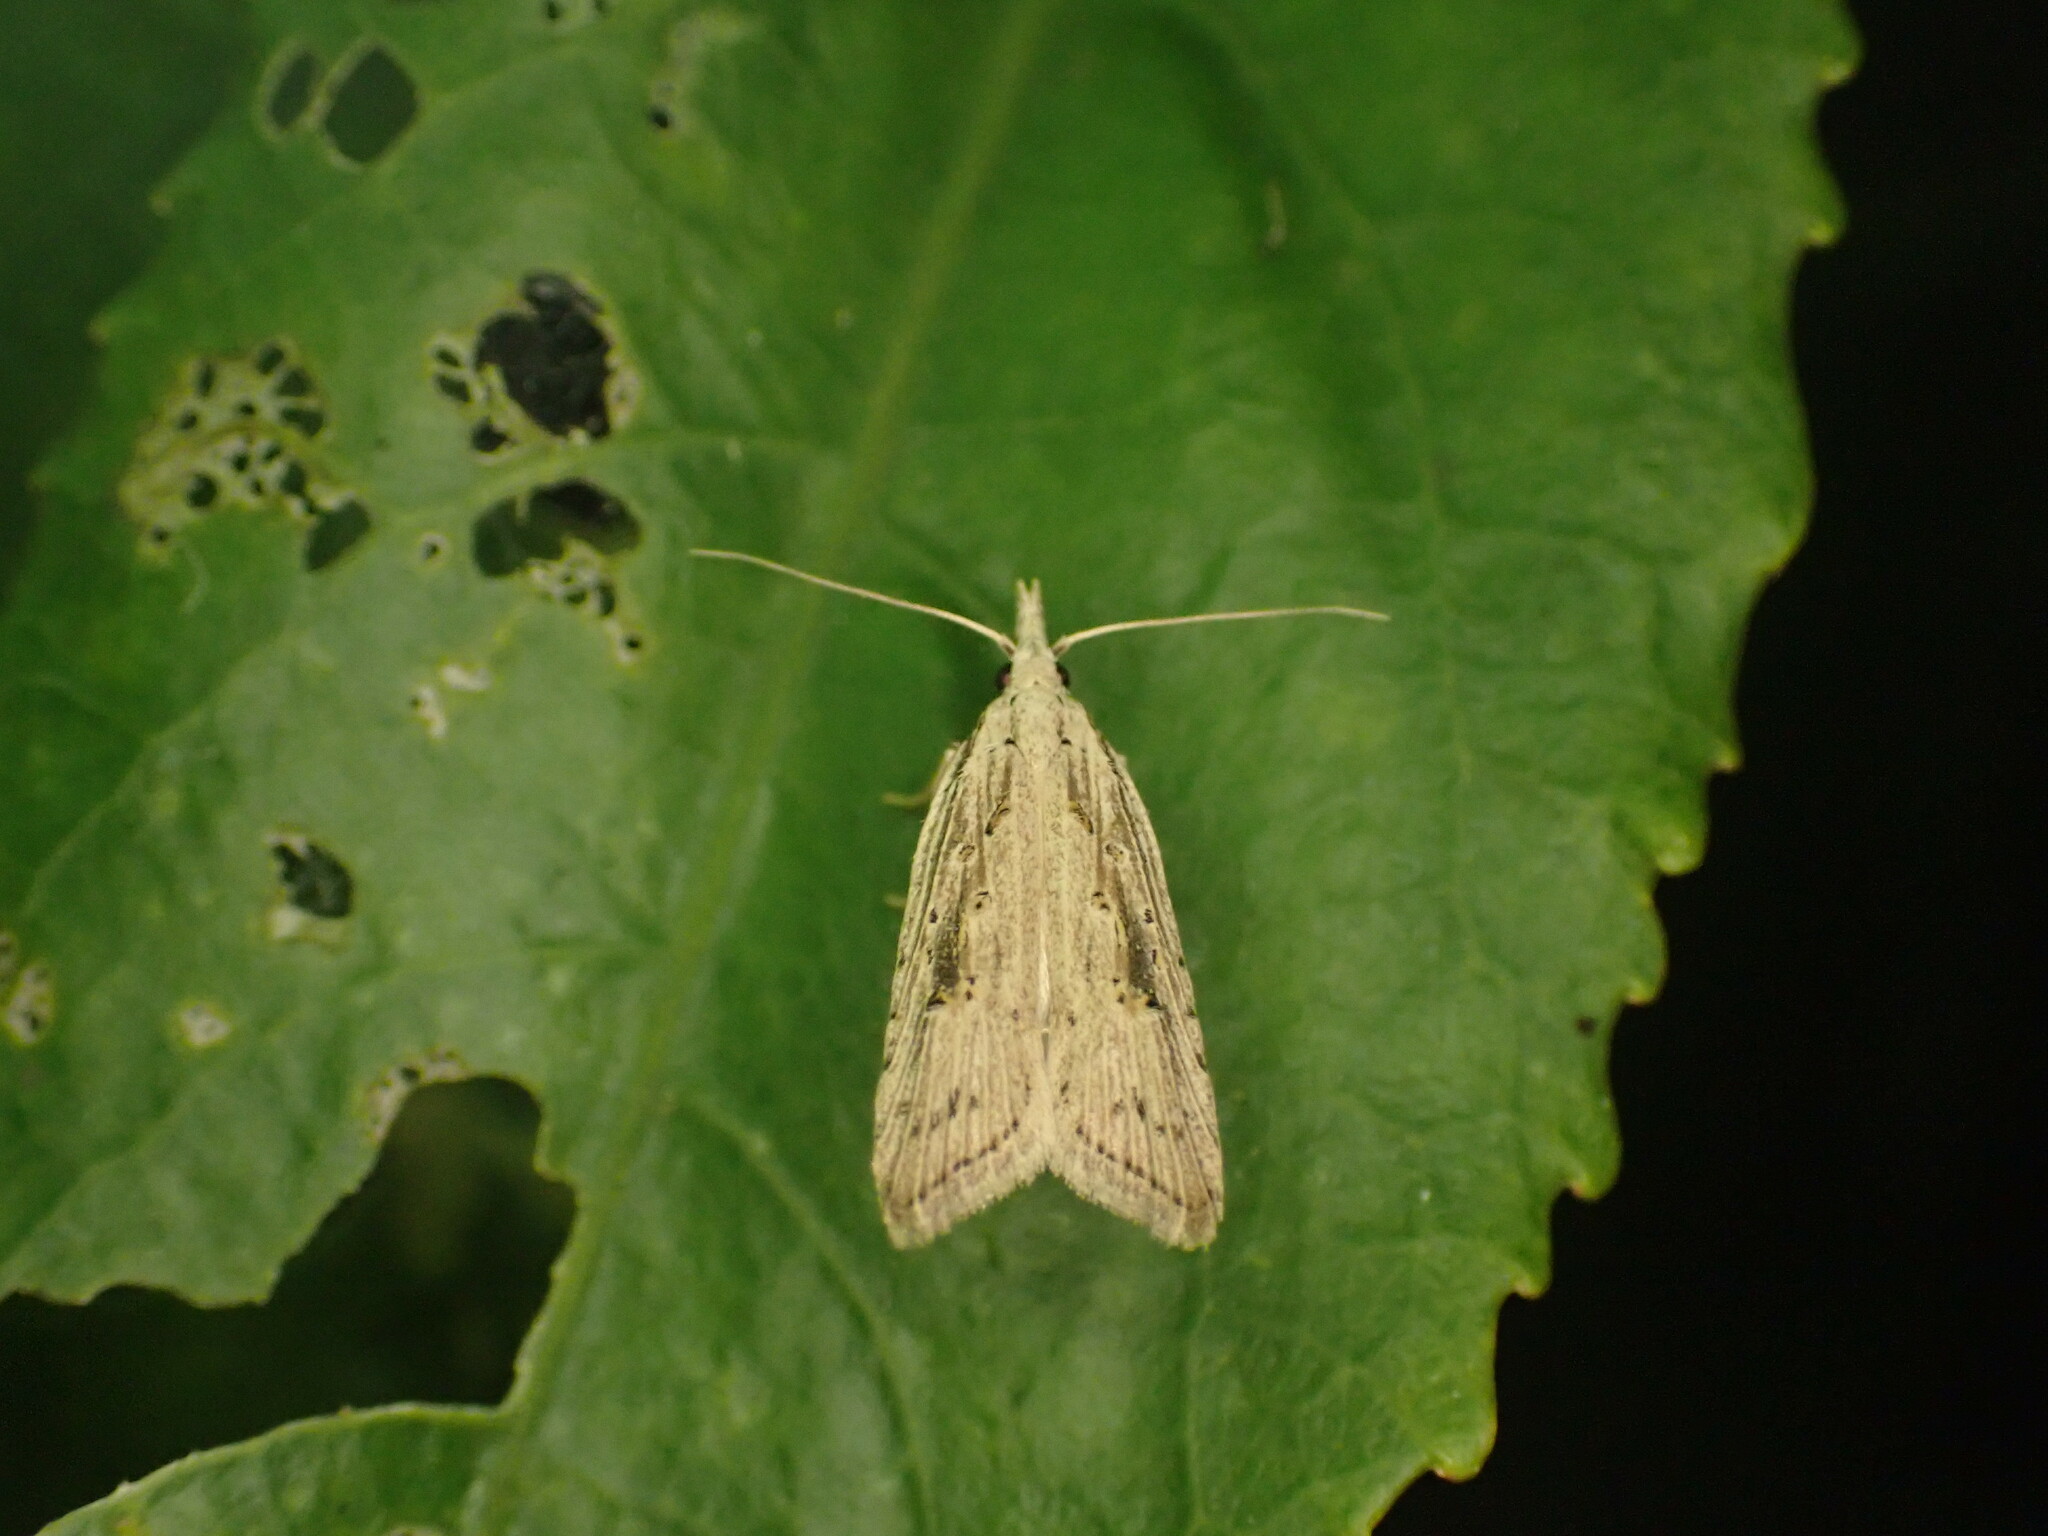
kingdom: Animalia
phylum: Arthropoda
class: Insecta
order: Lepidoptera
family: Carposinidae
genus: Carposina
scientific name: Carposina Heterocrossa exochana
